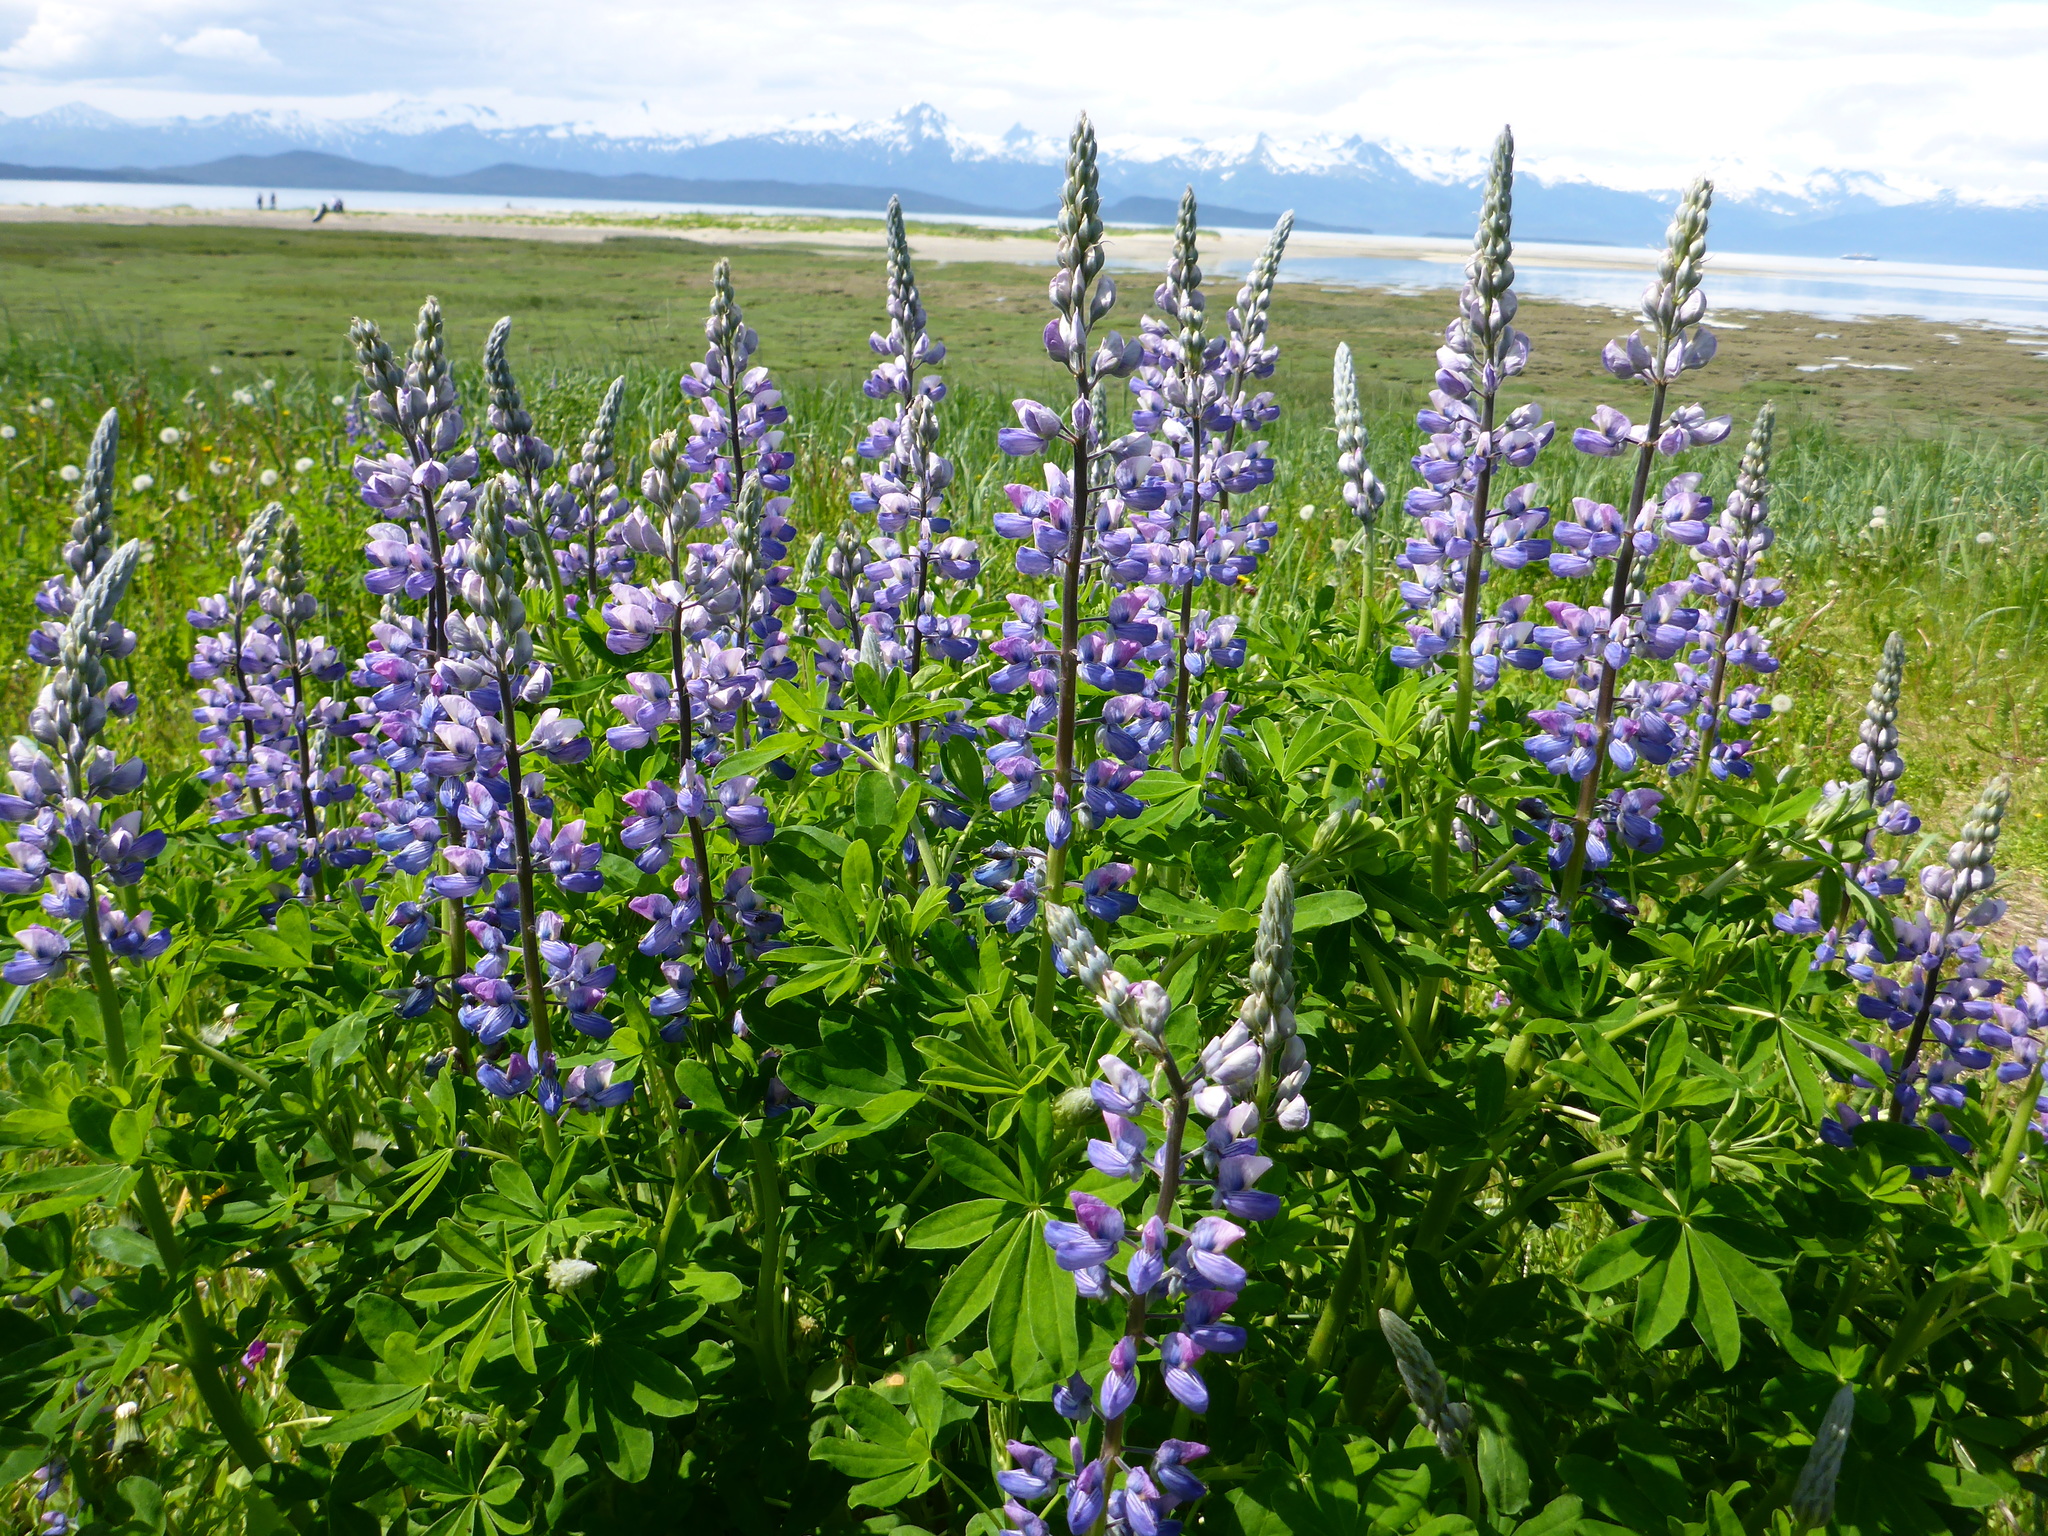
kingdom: Plantae
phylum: Tracheophyta
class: Magnoliopsida
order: Fabales
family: Fabaceae
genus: Lupinus
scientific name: Lupinus nootkatensis
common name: Nootka lupine
